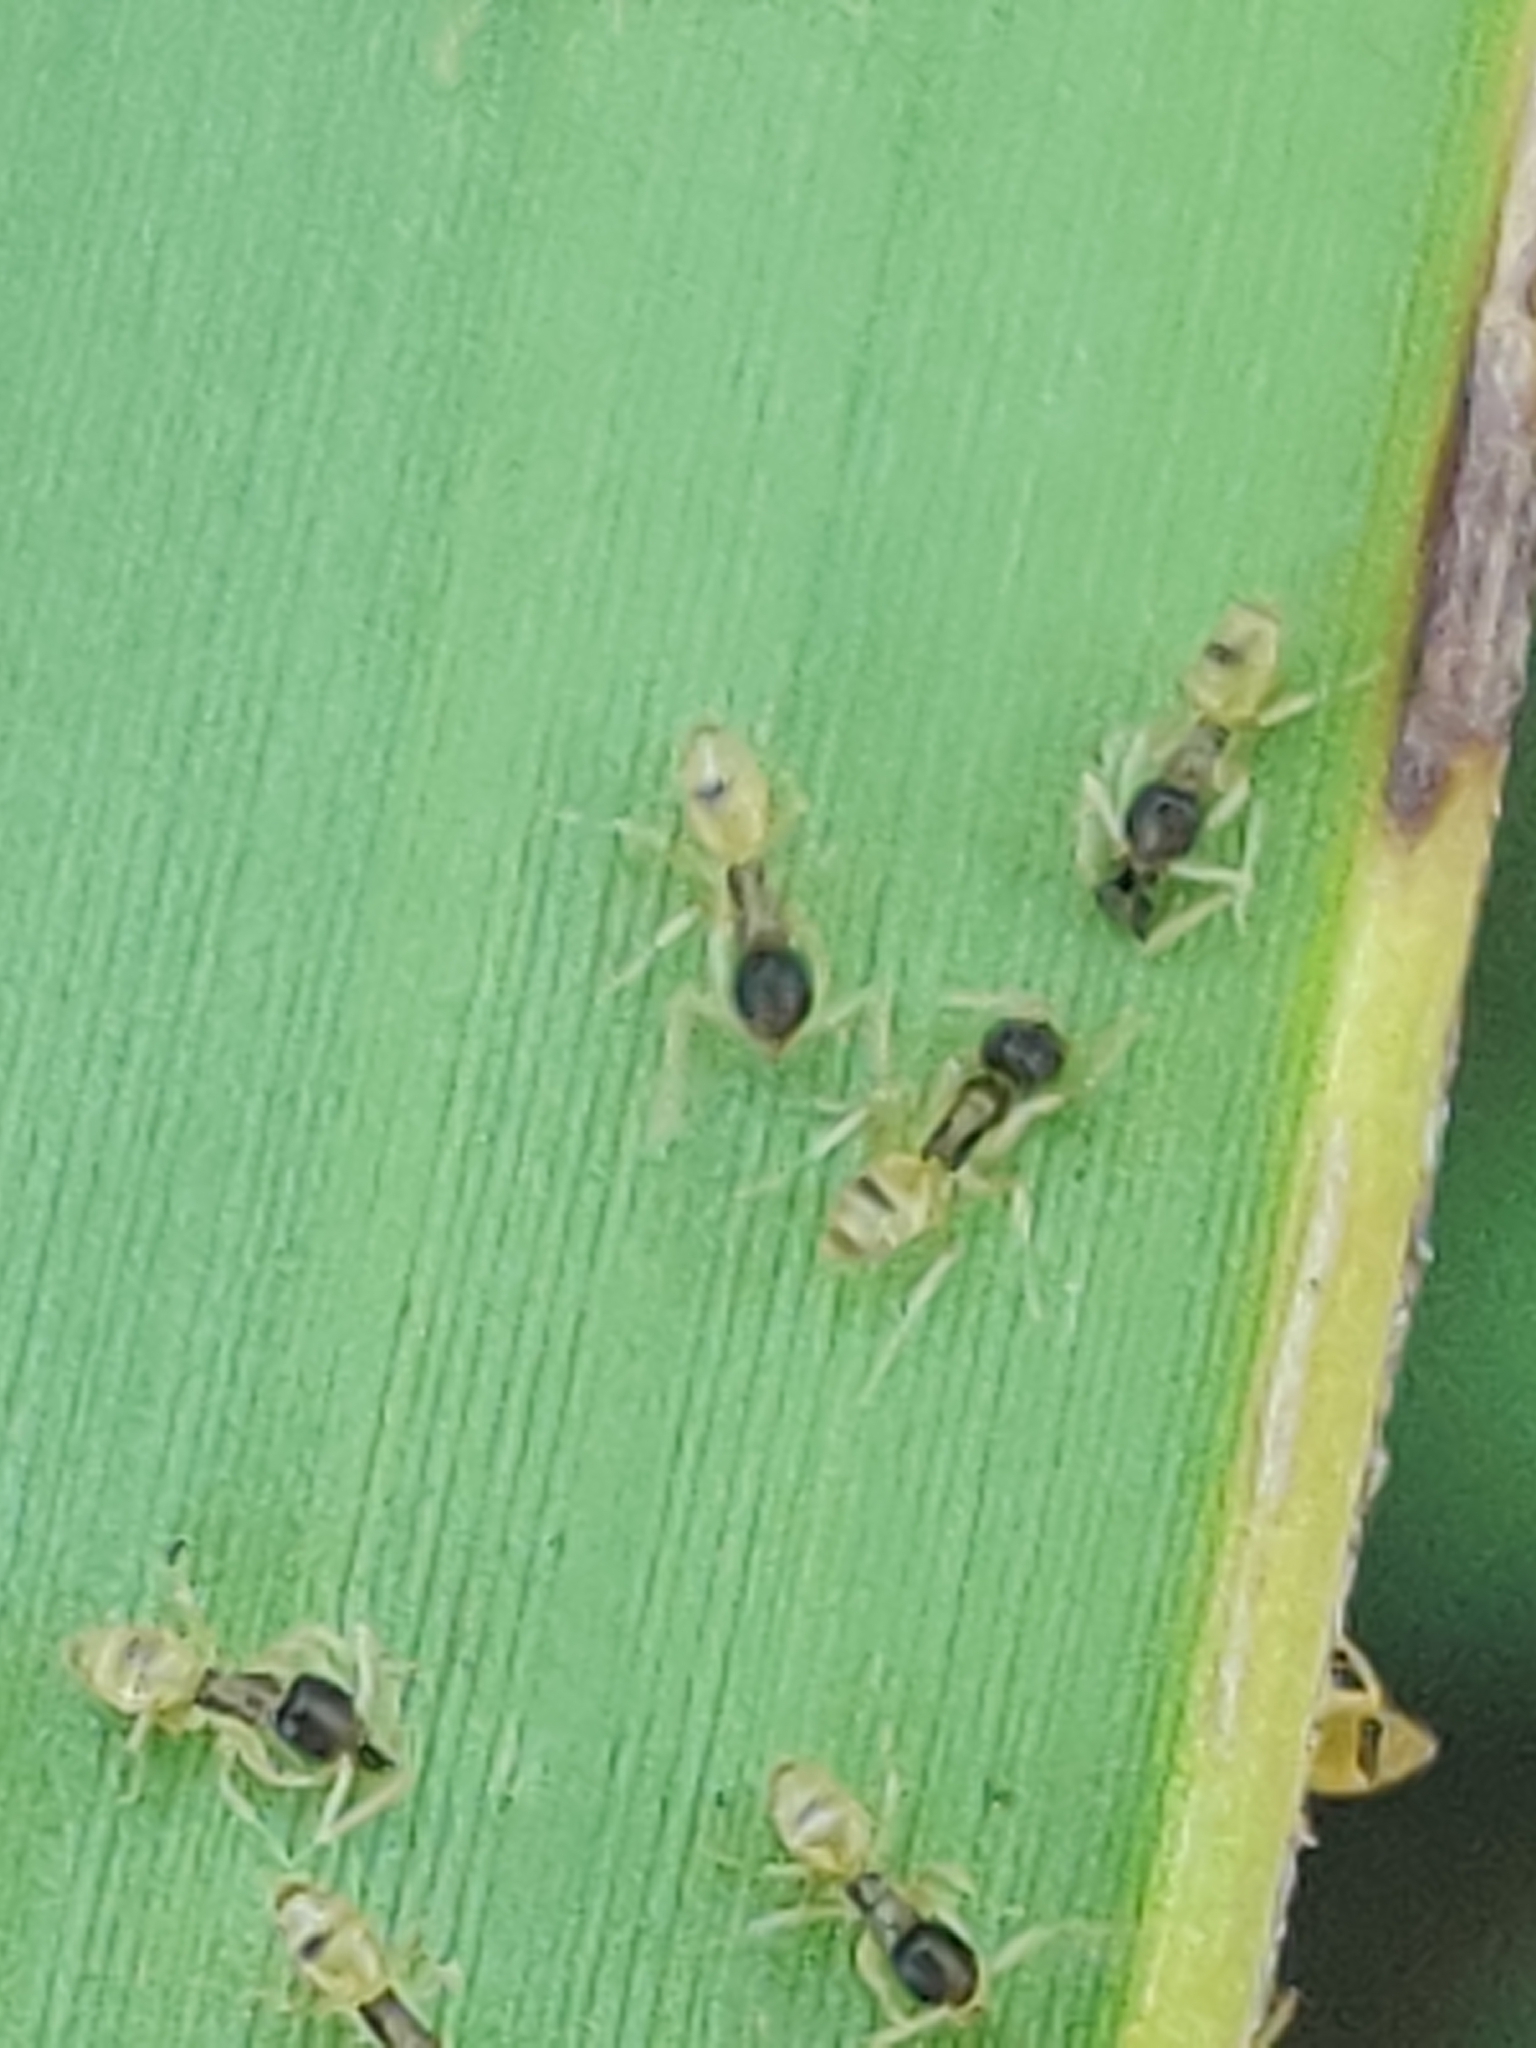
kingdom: Animalia
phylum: Arthropoda
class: Insecta
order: Hymenoptera
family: Formicidae
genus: Tapinoma
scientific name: Tapinoma melanocephalum
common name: Ghost ant
